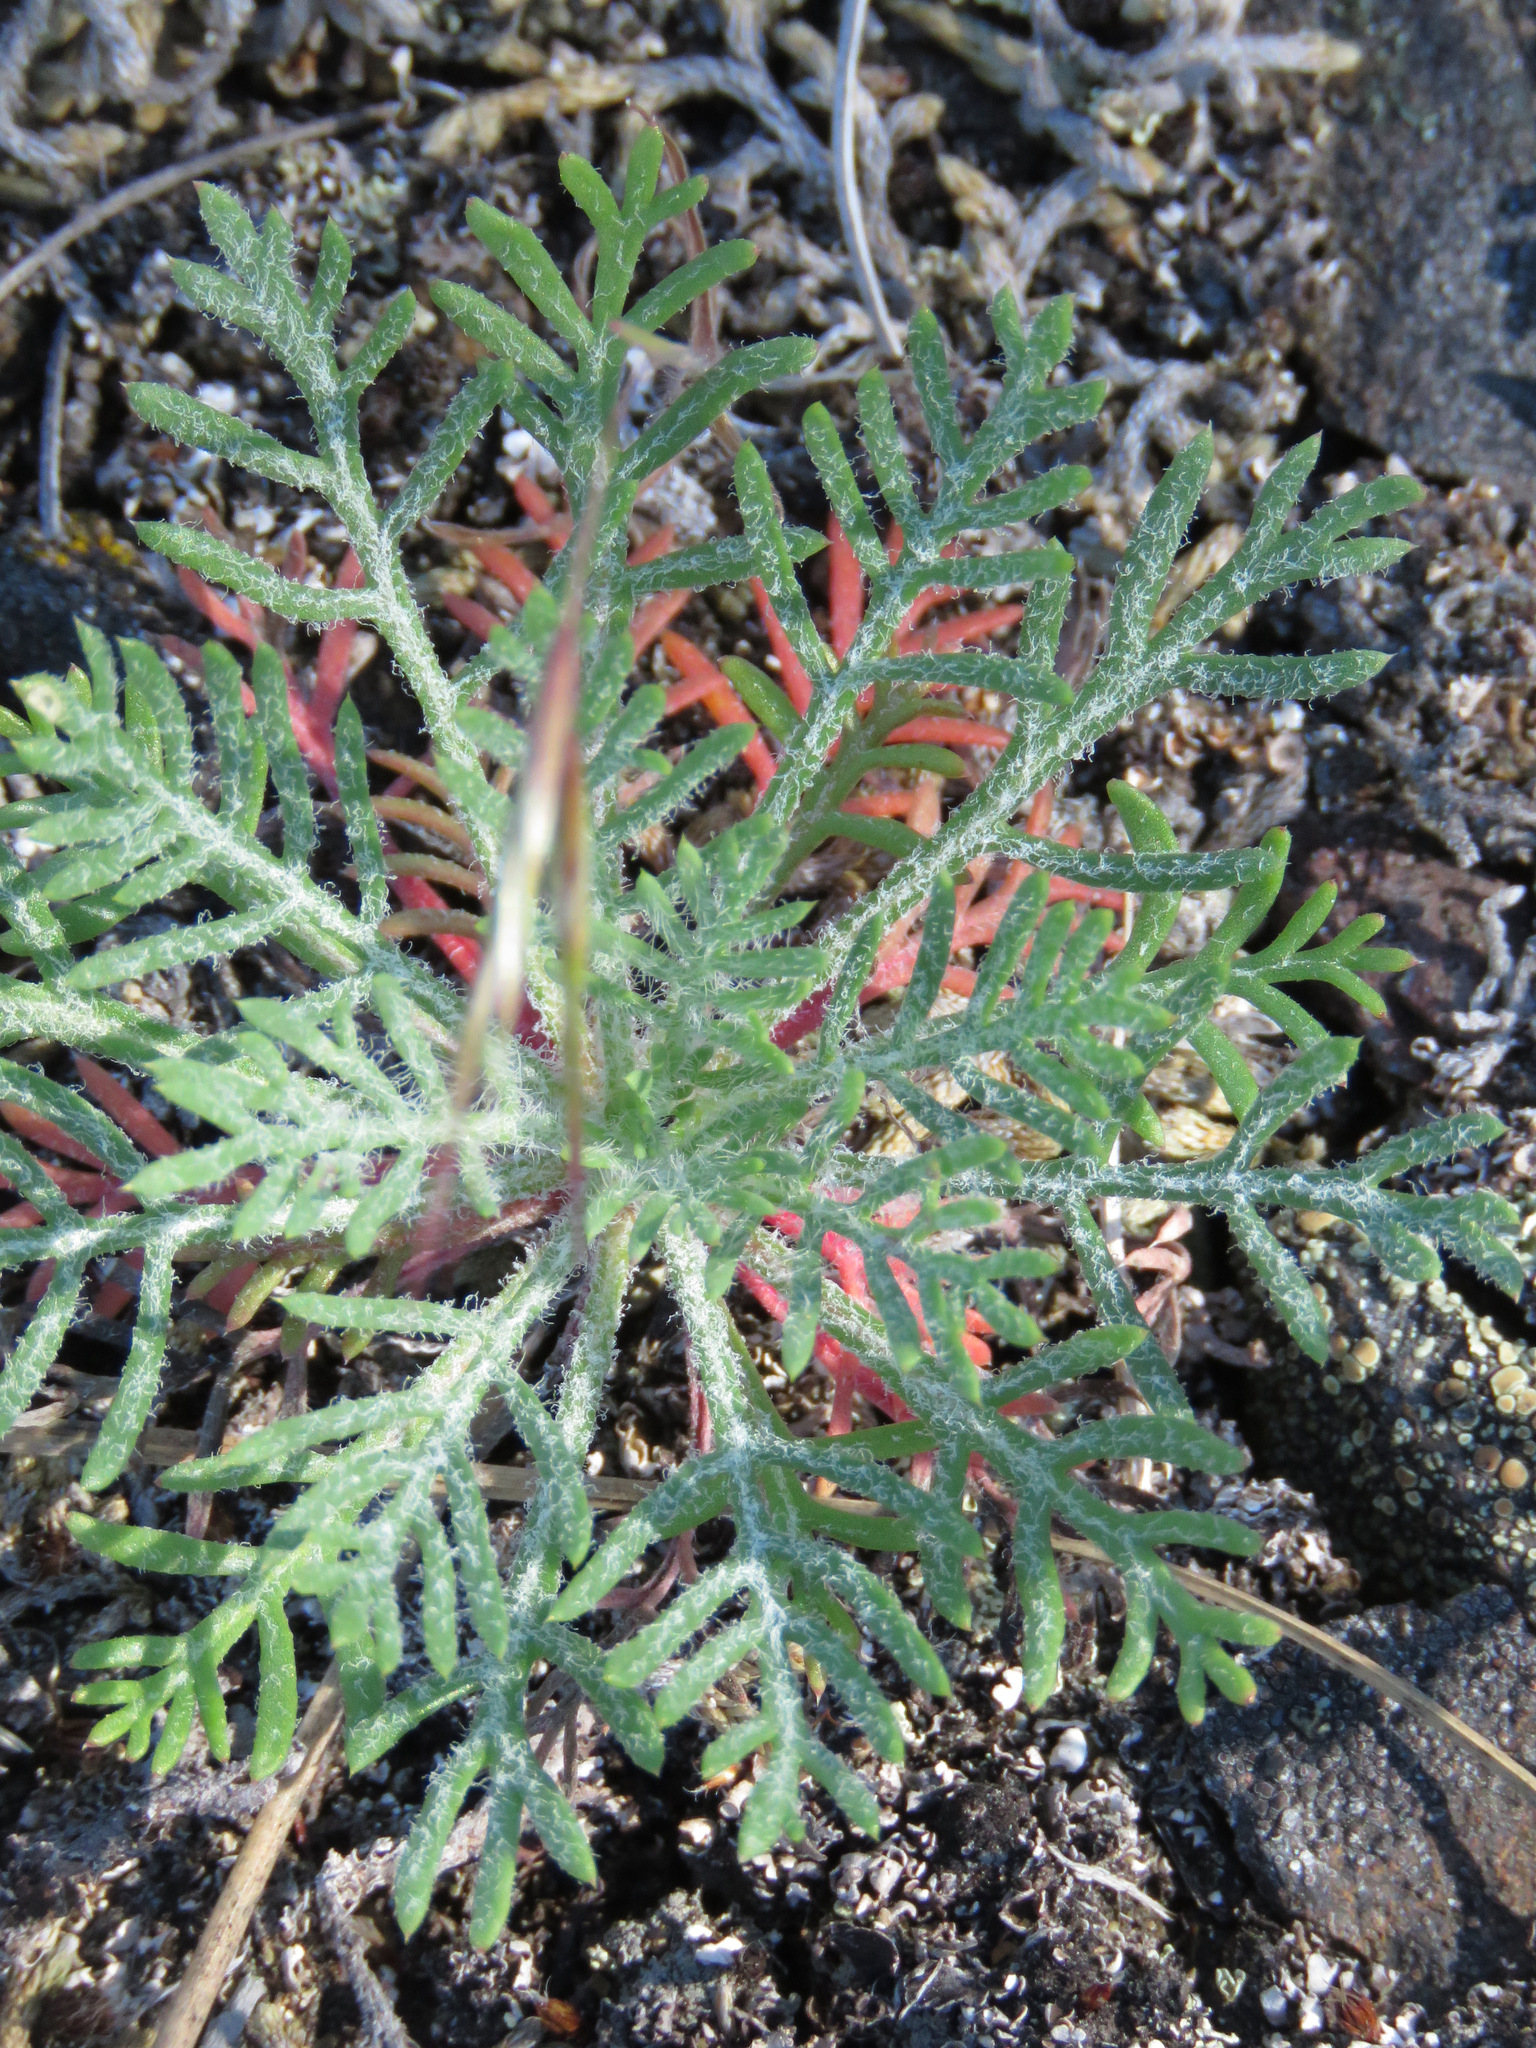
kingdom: Plantae
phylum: Tracheophyta
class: Magnoliopsida
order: Ericales
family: Polemoniaceae
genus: Ipomopsis
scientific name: Ipomopsis aggregata
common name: Scarlet gilia
